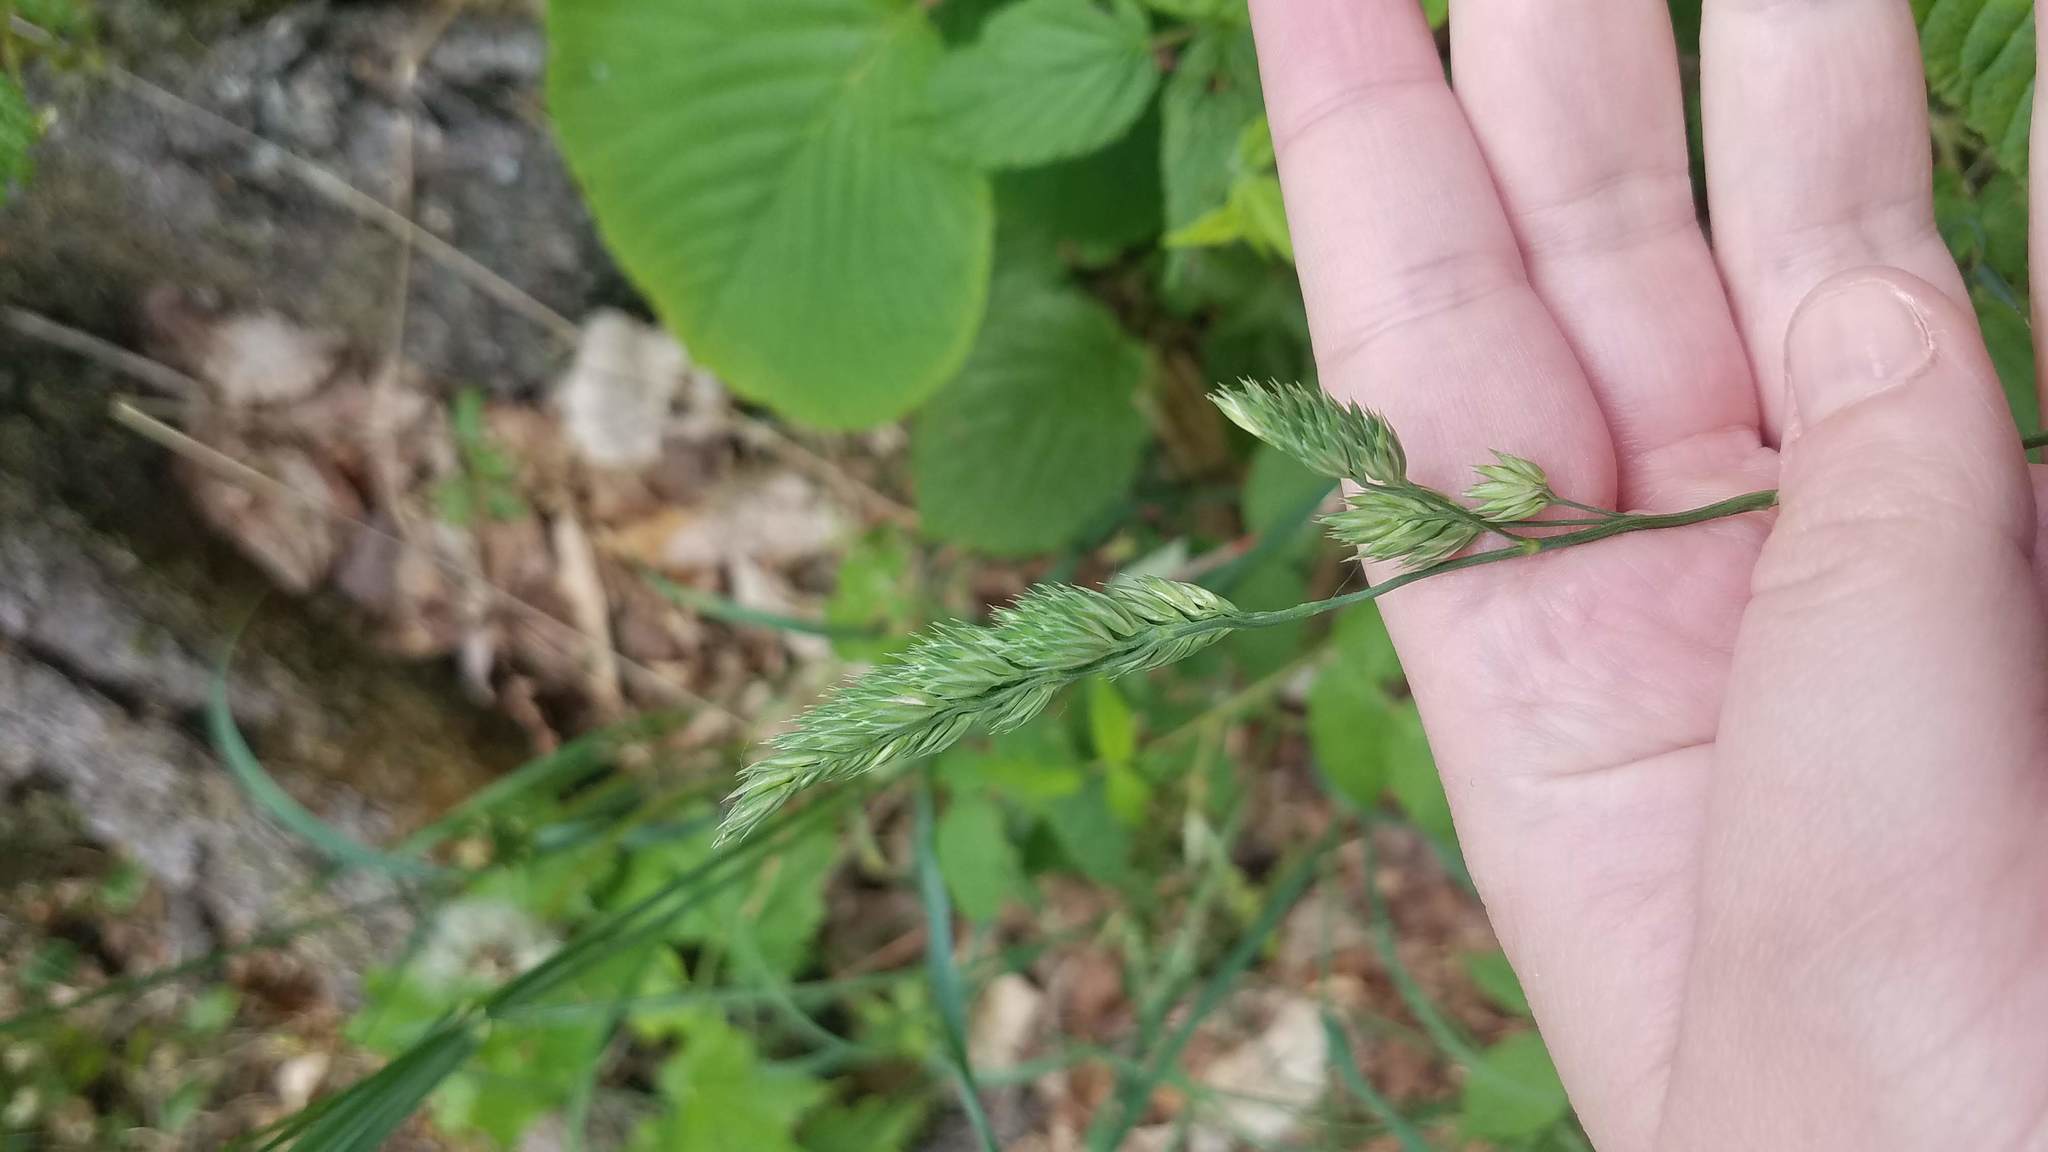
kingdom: Plantae
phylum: Tracheophyta
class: Liliopsida
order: Poales
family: Poaceae
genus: Dactylis
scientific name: Dactylis glomerata
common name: Orchardgrass
